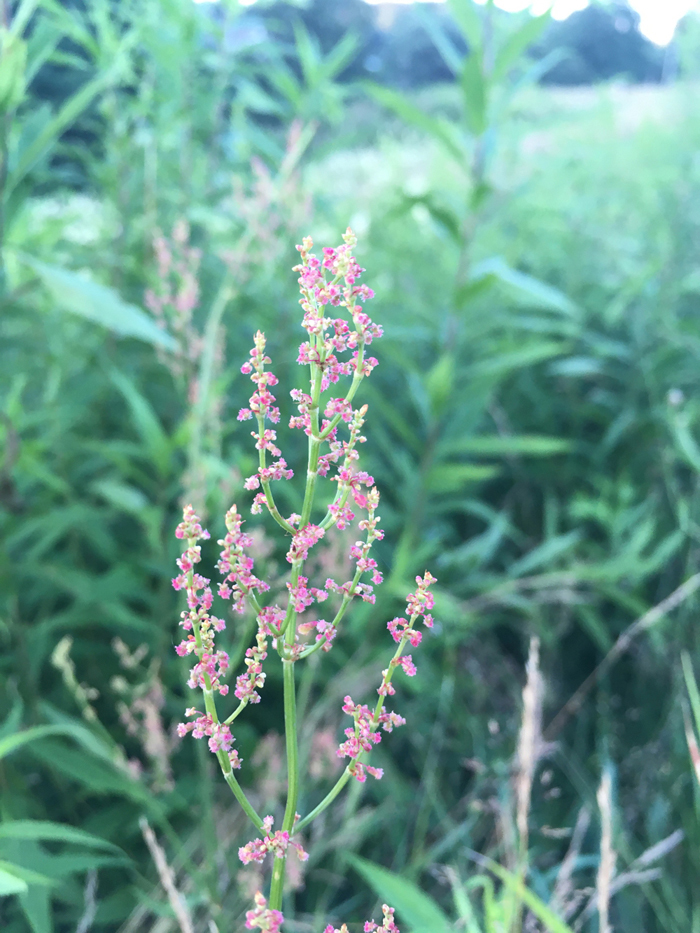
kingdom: Plantae
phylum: Tracheophyta
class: Magnoliopsida
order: Caryophyllales
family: Polygonaceae
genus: Rumex
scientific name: Rumex thyrsiflorus
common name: Garden sorrel
